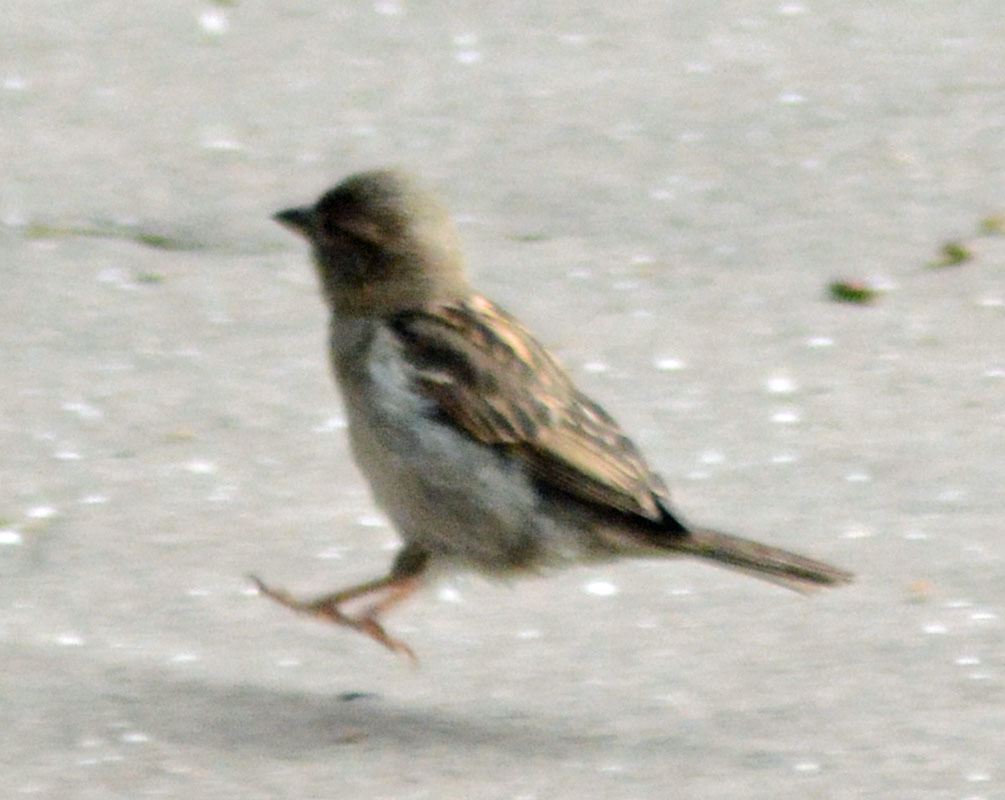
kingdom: Animalia
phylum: Chordata
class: Aves
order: Passeriformes
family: Passeridae
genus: Passer
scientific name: Passer domesticus
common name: House sparrow
